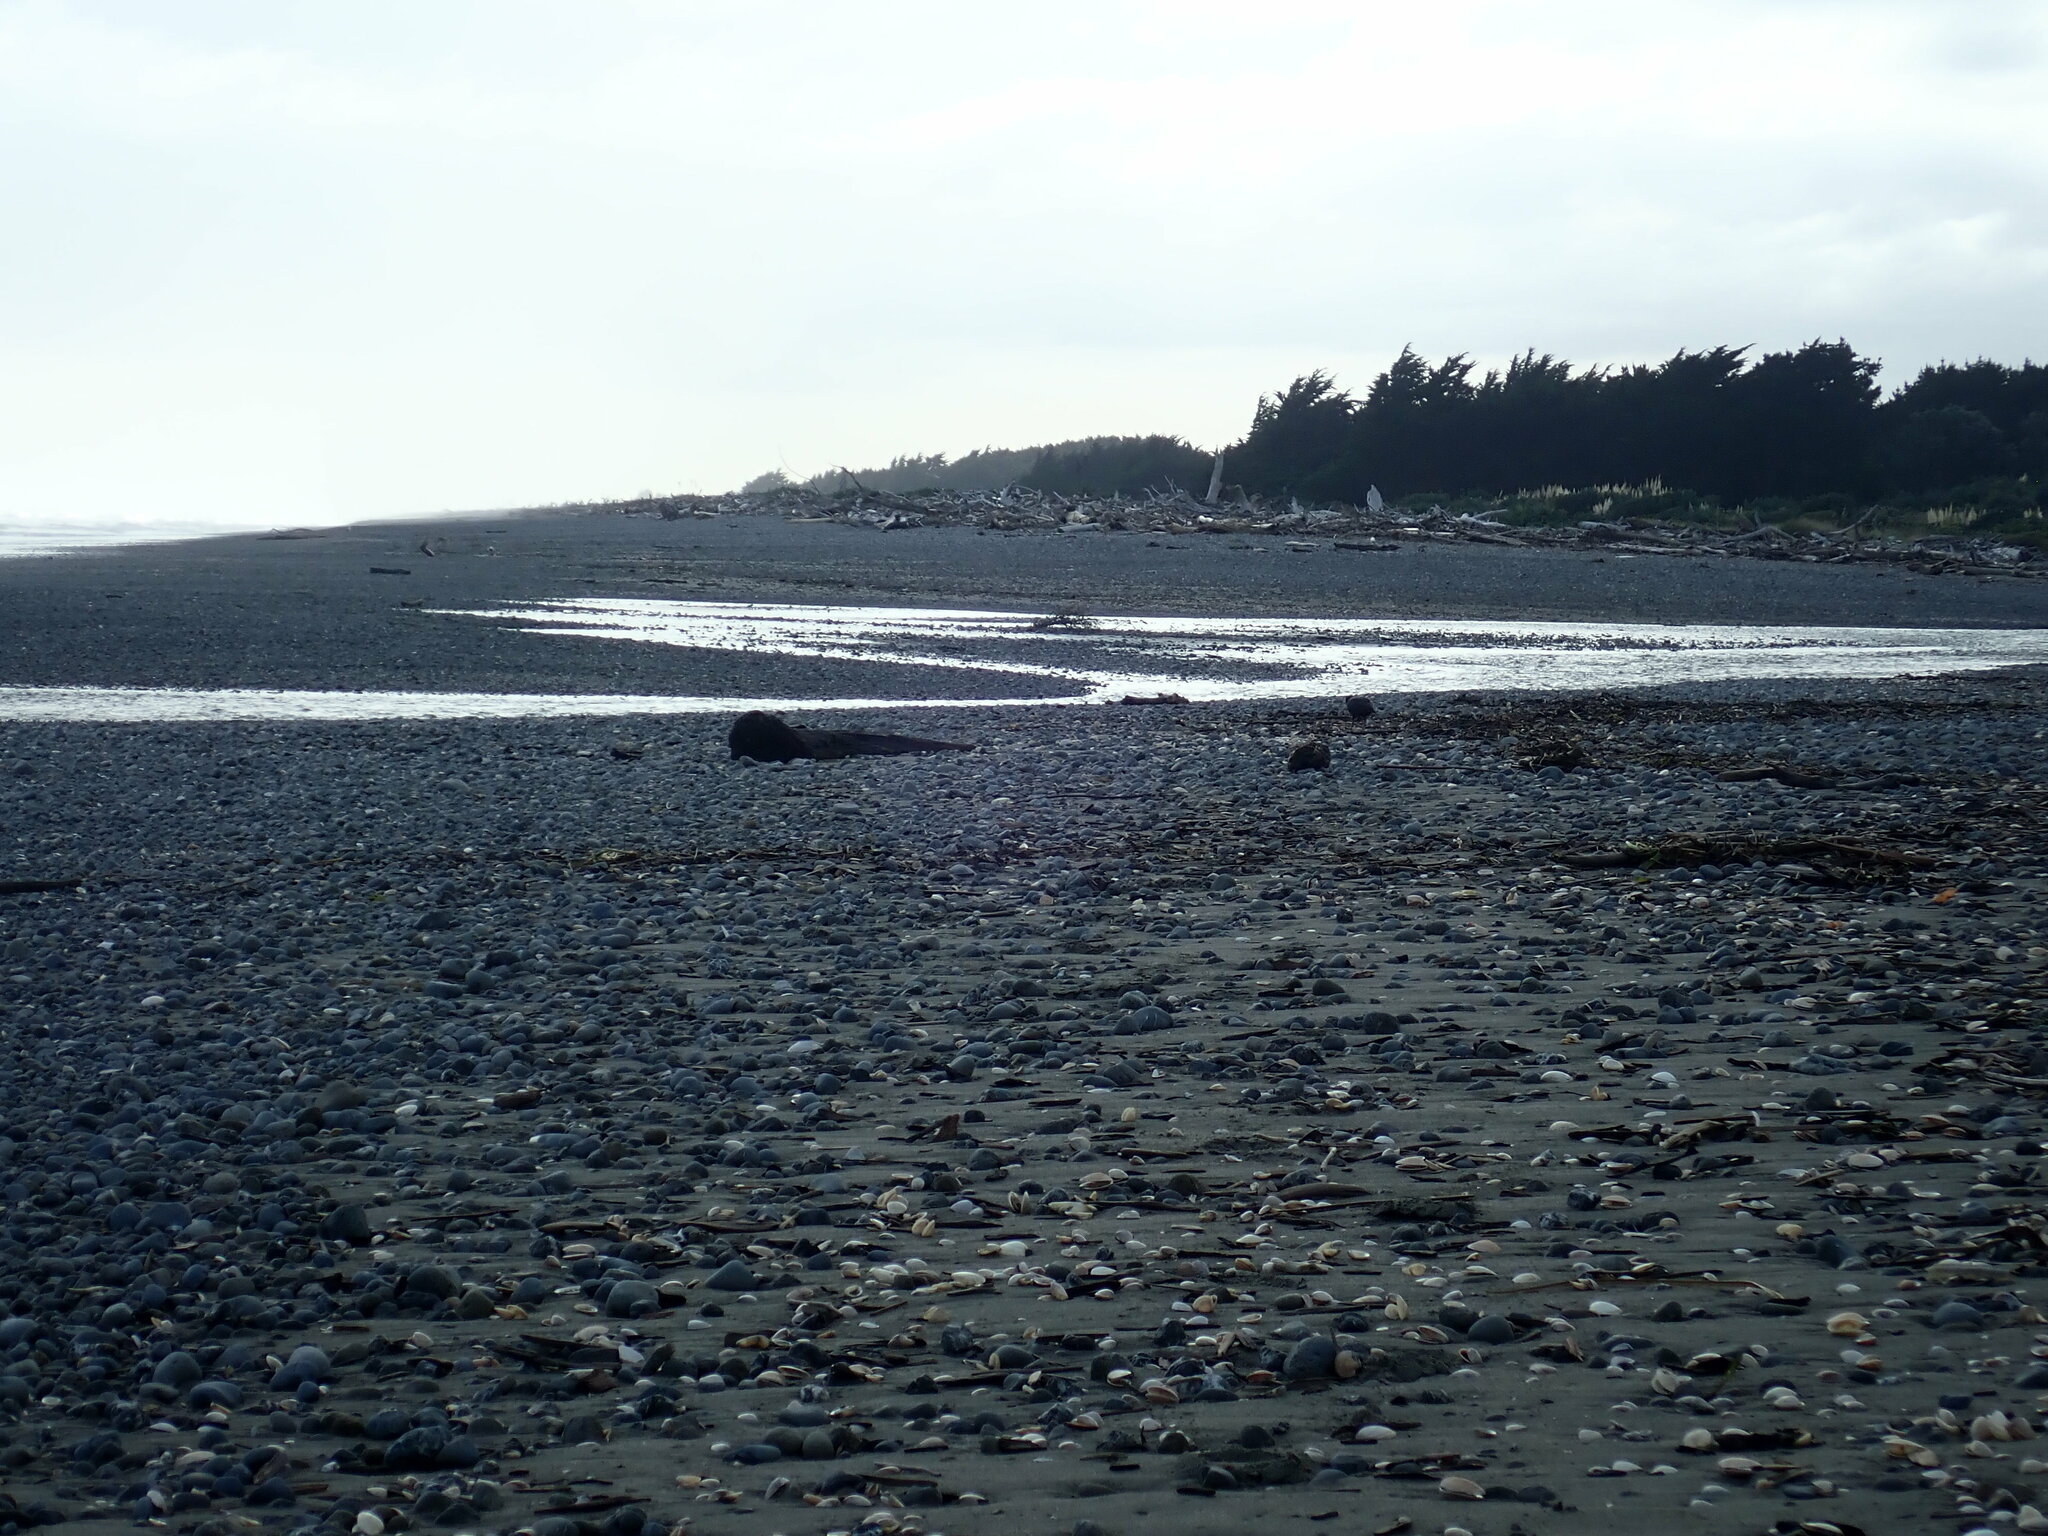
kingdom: Animalia
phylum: Chordata
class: Aves
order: Charadriiformes
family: Haematopodidae
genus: Haematopus
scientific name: Haematopus unicolor
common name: Variable oystercatcher
